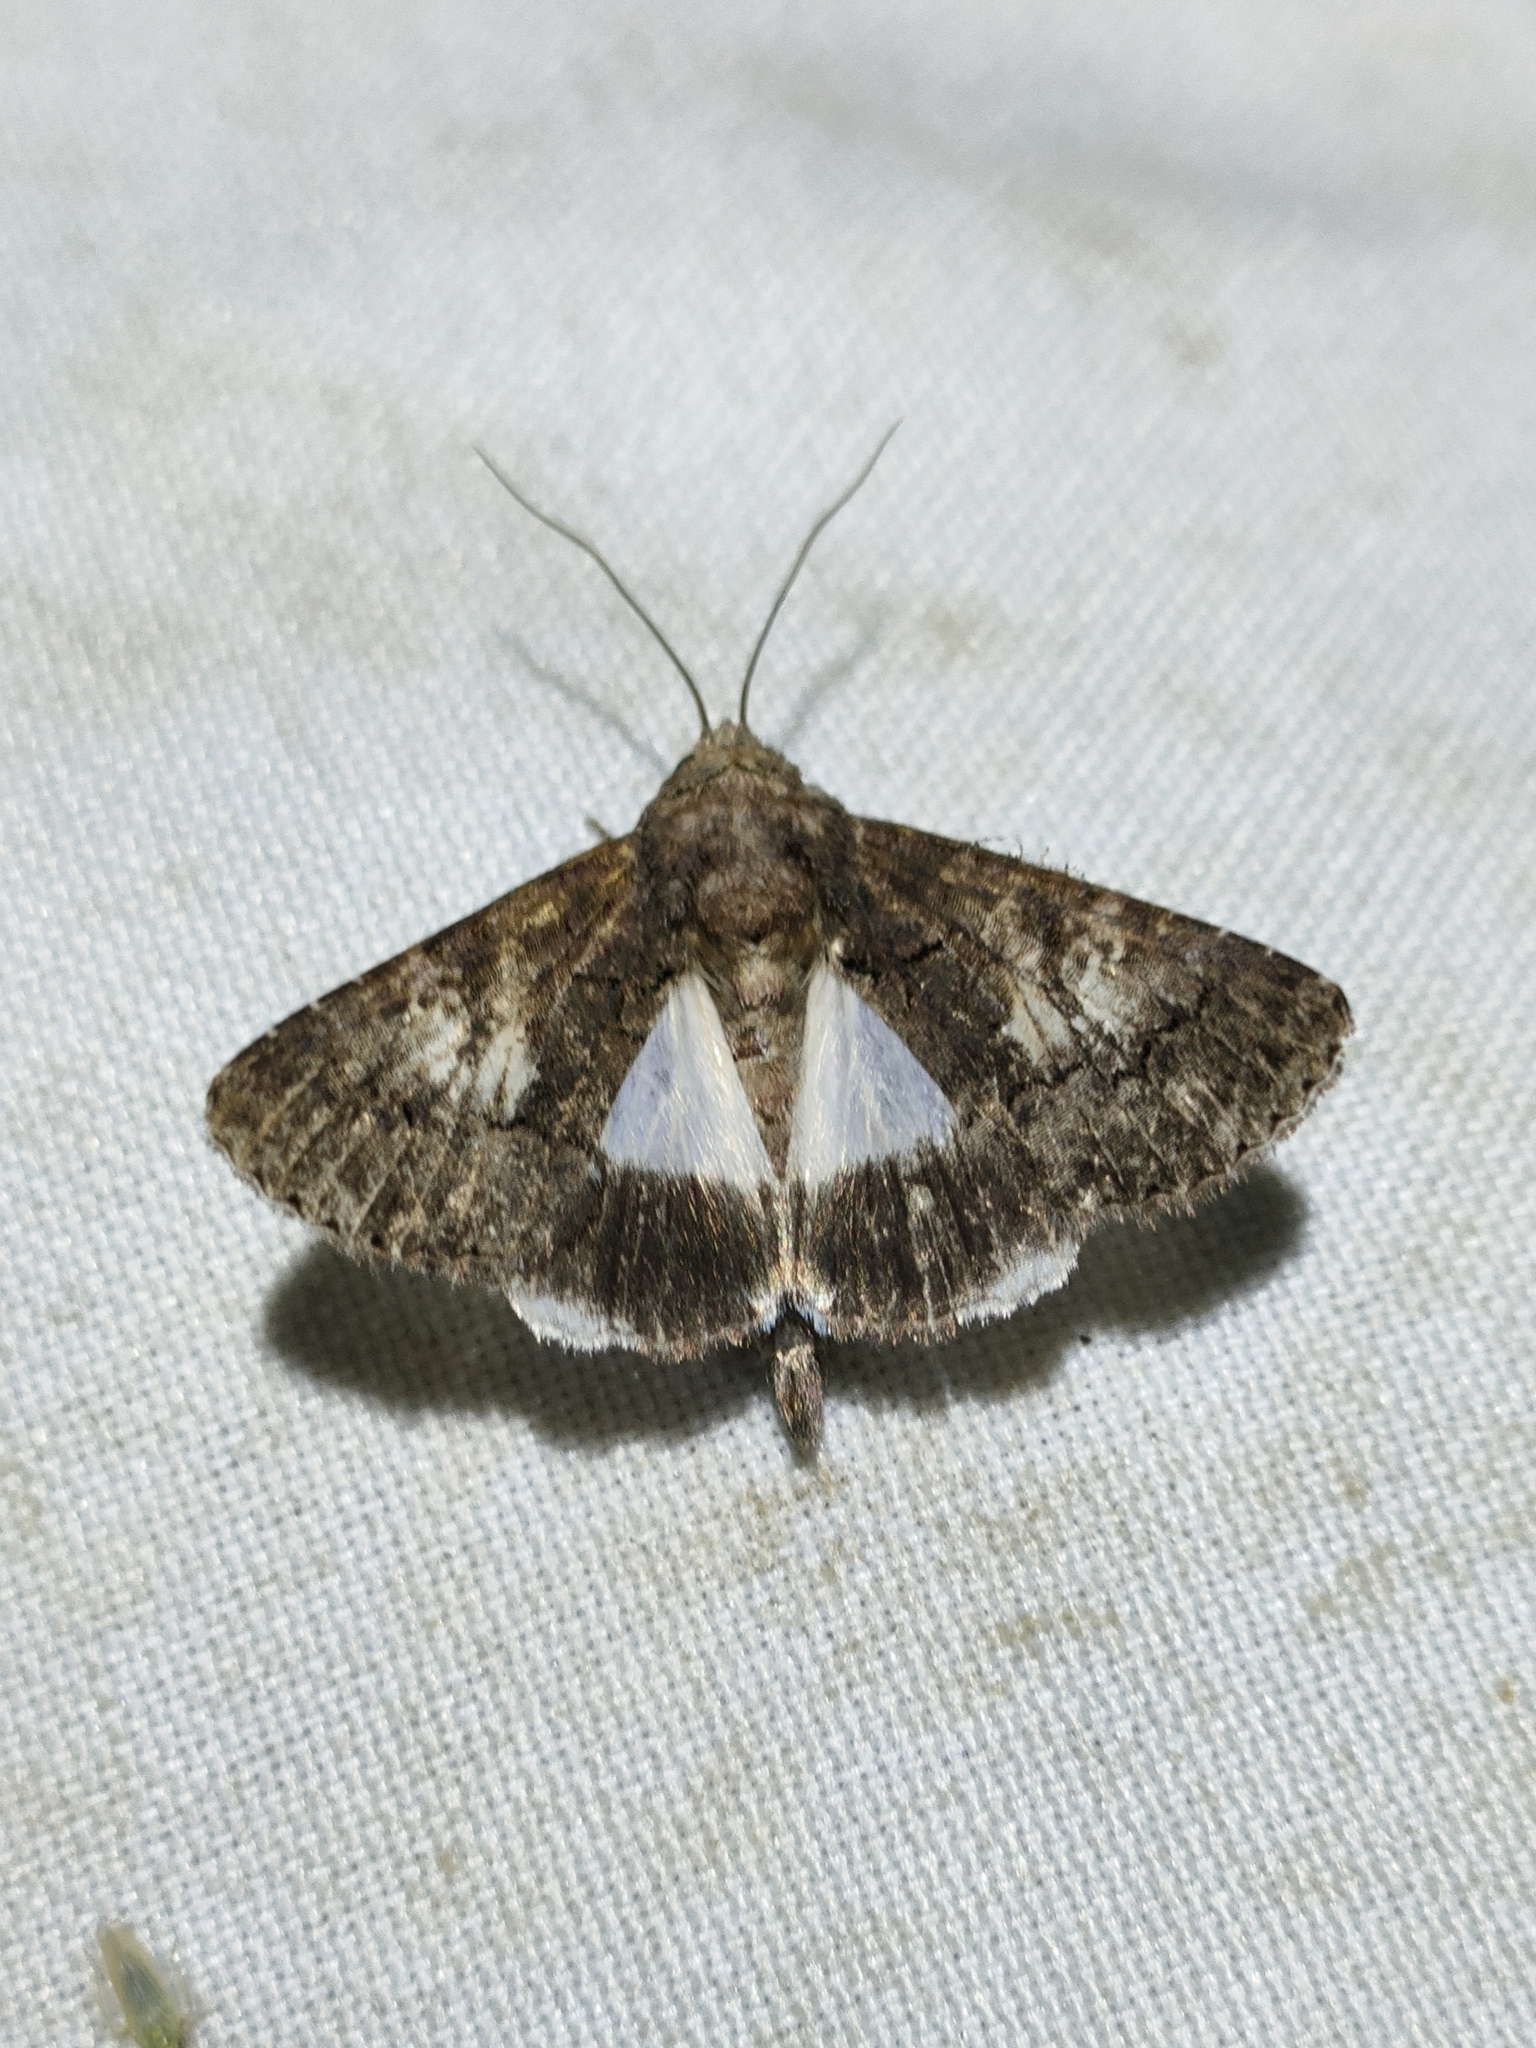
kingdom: Animalia
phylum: Arthropoda
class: Insecta
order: Lepidoptera
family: Noctuidae
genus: Aedia
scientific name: Aedia leucomelas
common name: Sorcerer
